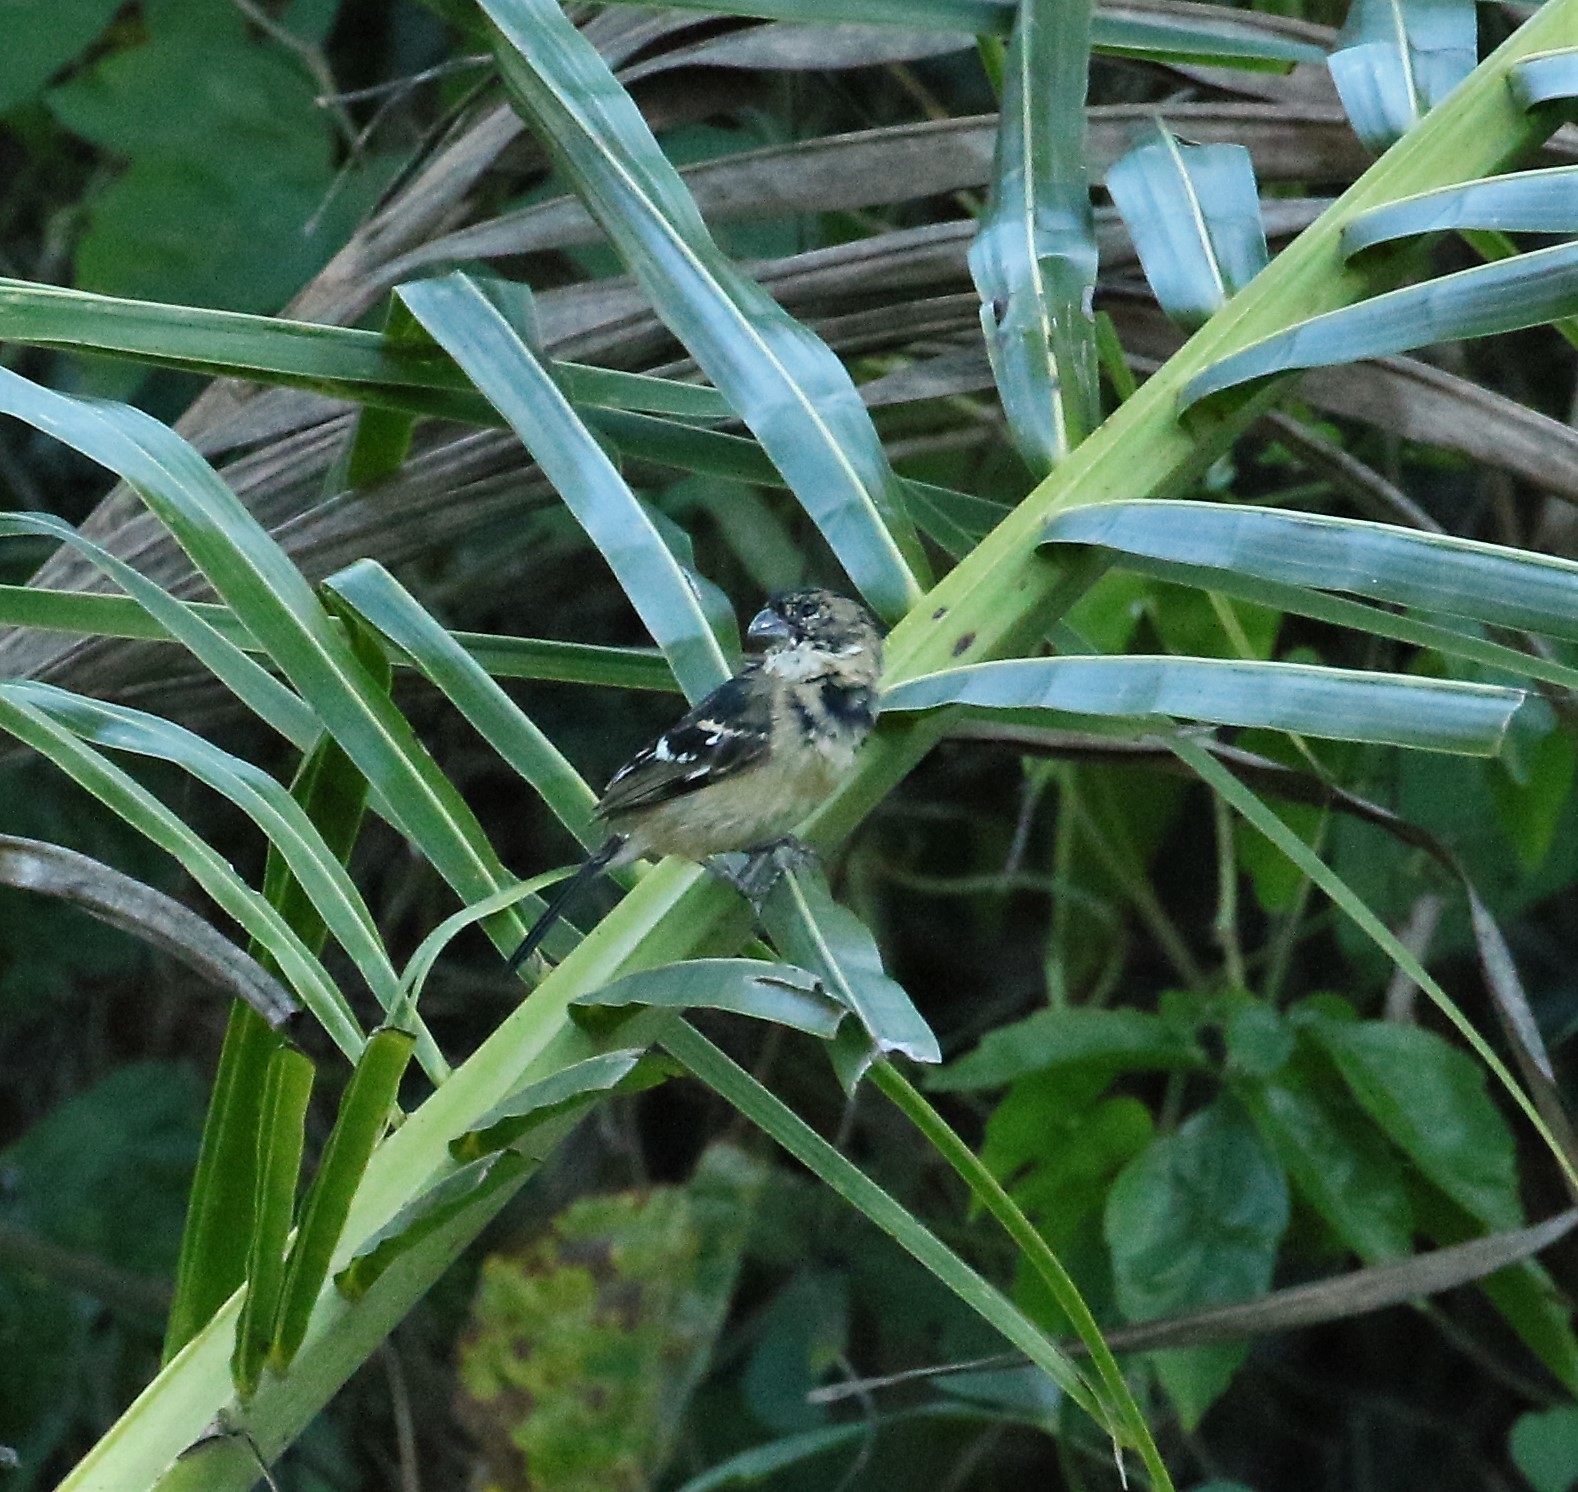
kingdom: Animalia
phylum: Chordata
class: Aves
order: Passeriformes
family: Thraupidae
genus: Sporophila
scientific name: Sporophila morelleti
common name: Morelet's seedeater
